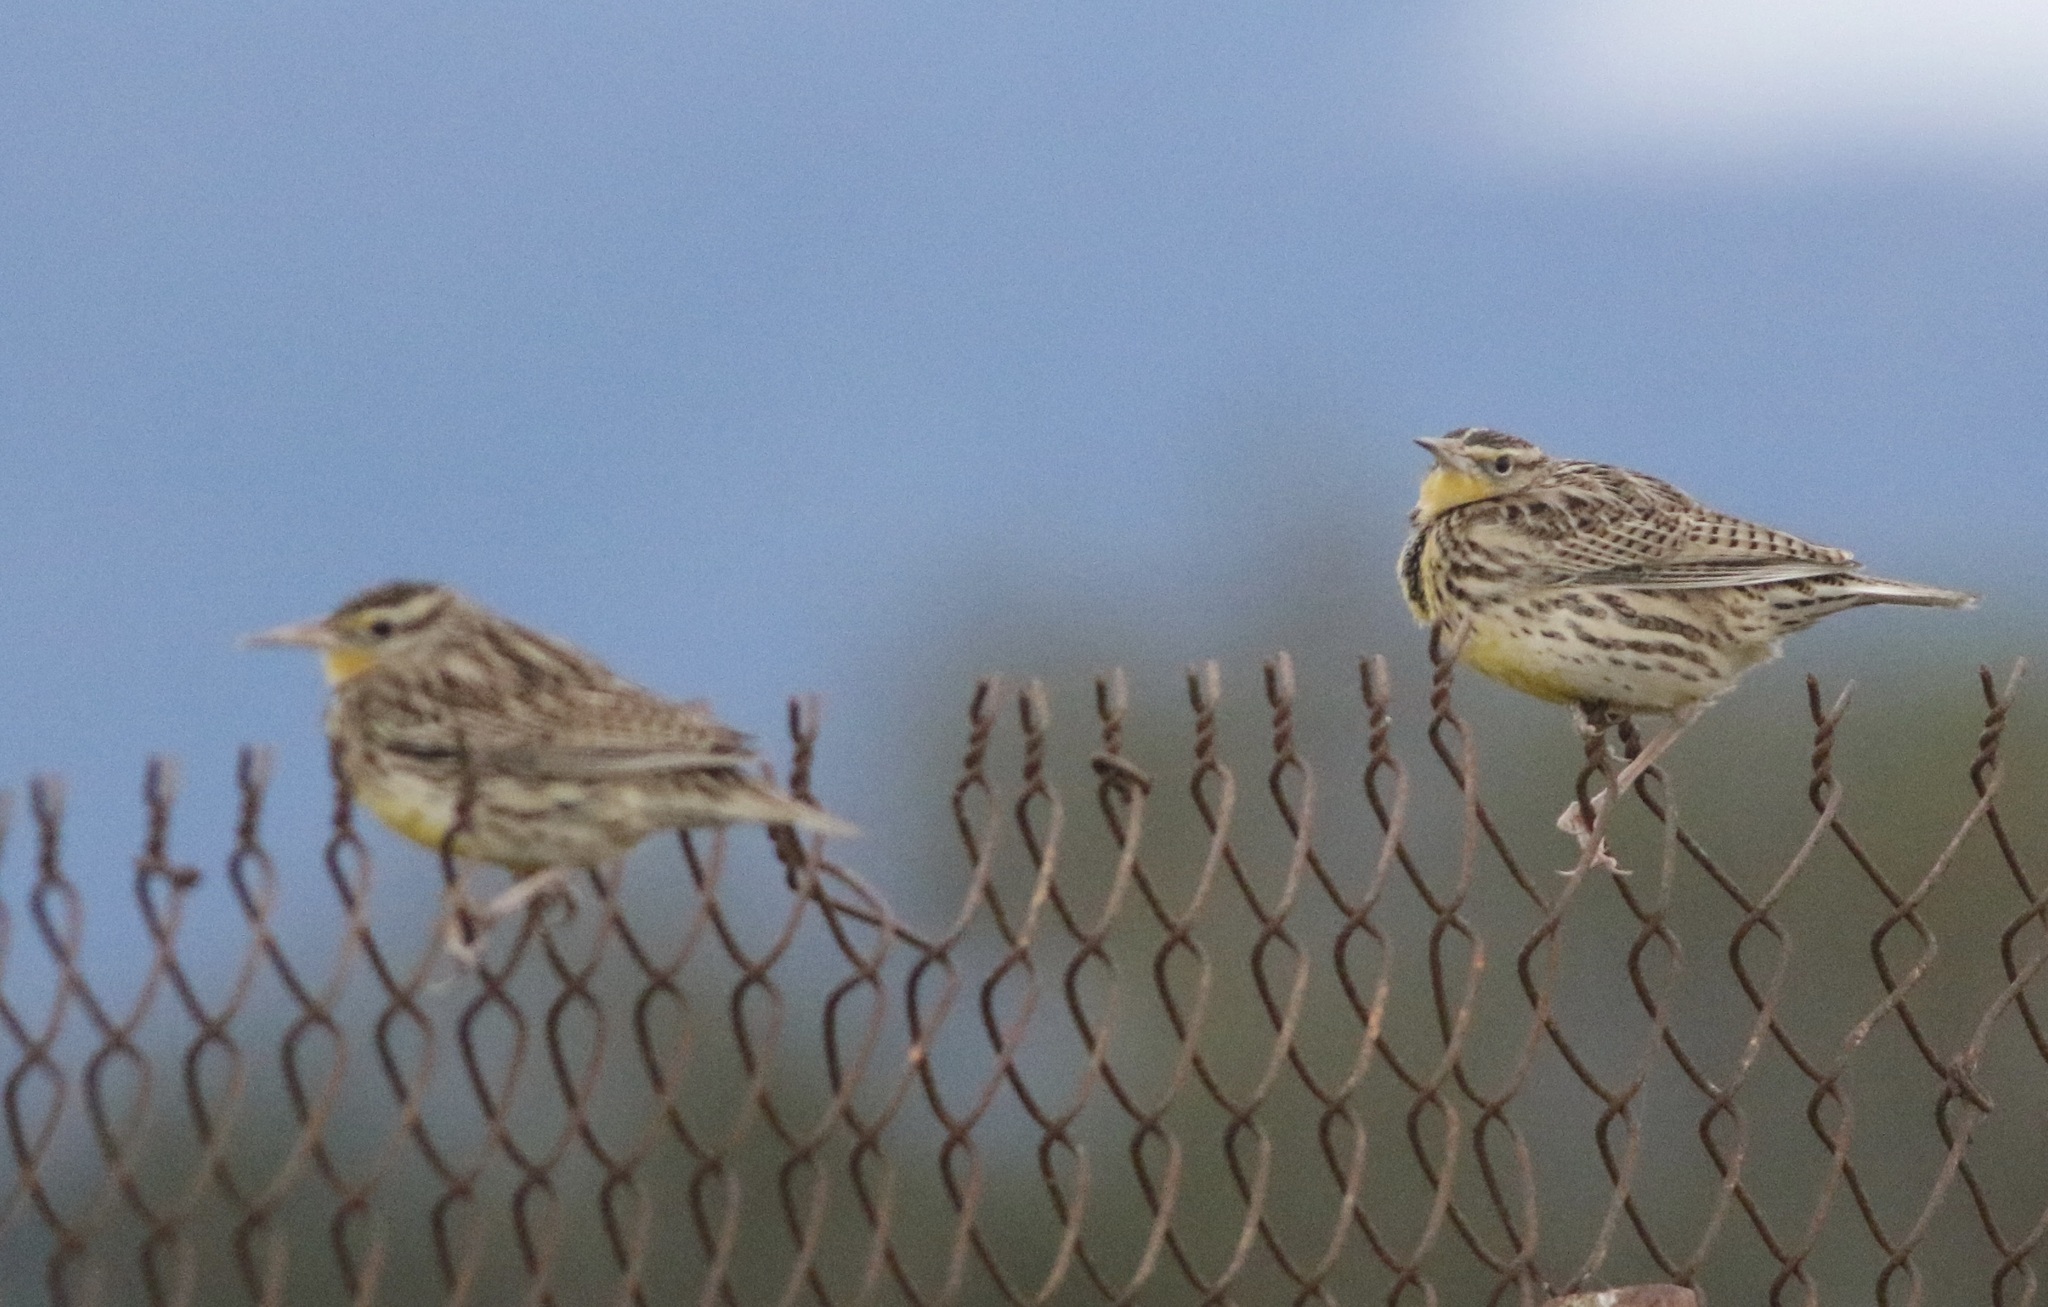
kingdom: Animalia
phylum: Chordata
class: Aves
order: Passeriformes
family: Icteridae
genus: Sturnella
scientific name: Sturnella neglecta
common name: Western meadowlark
